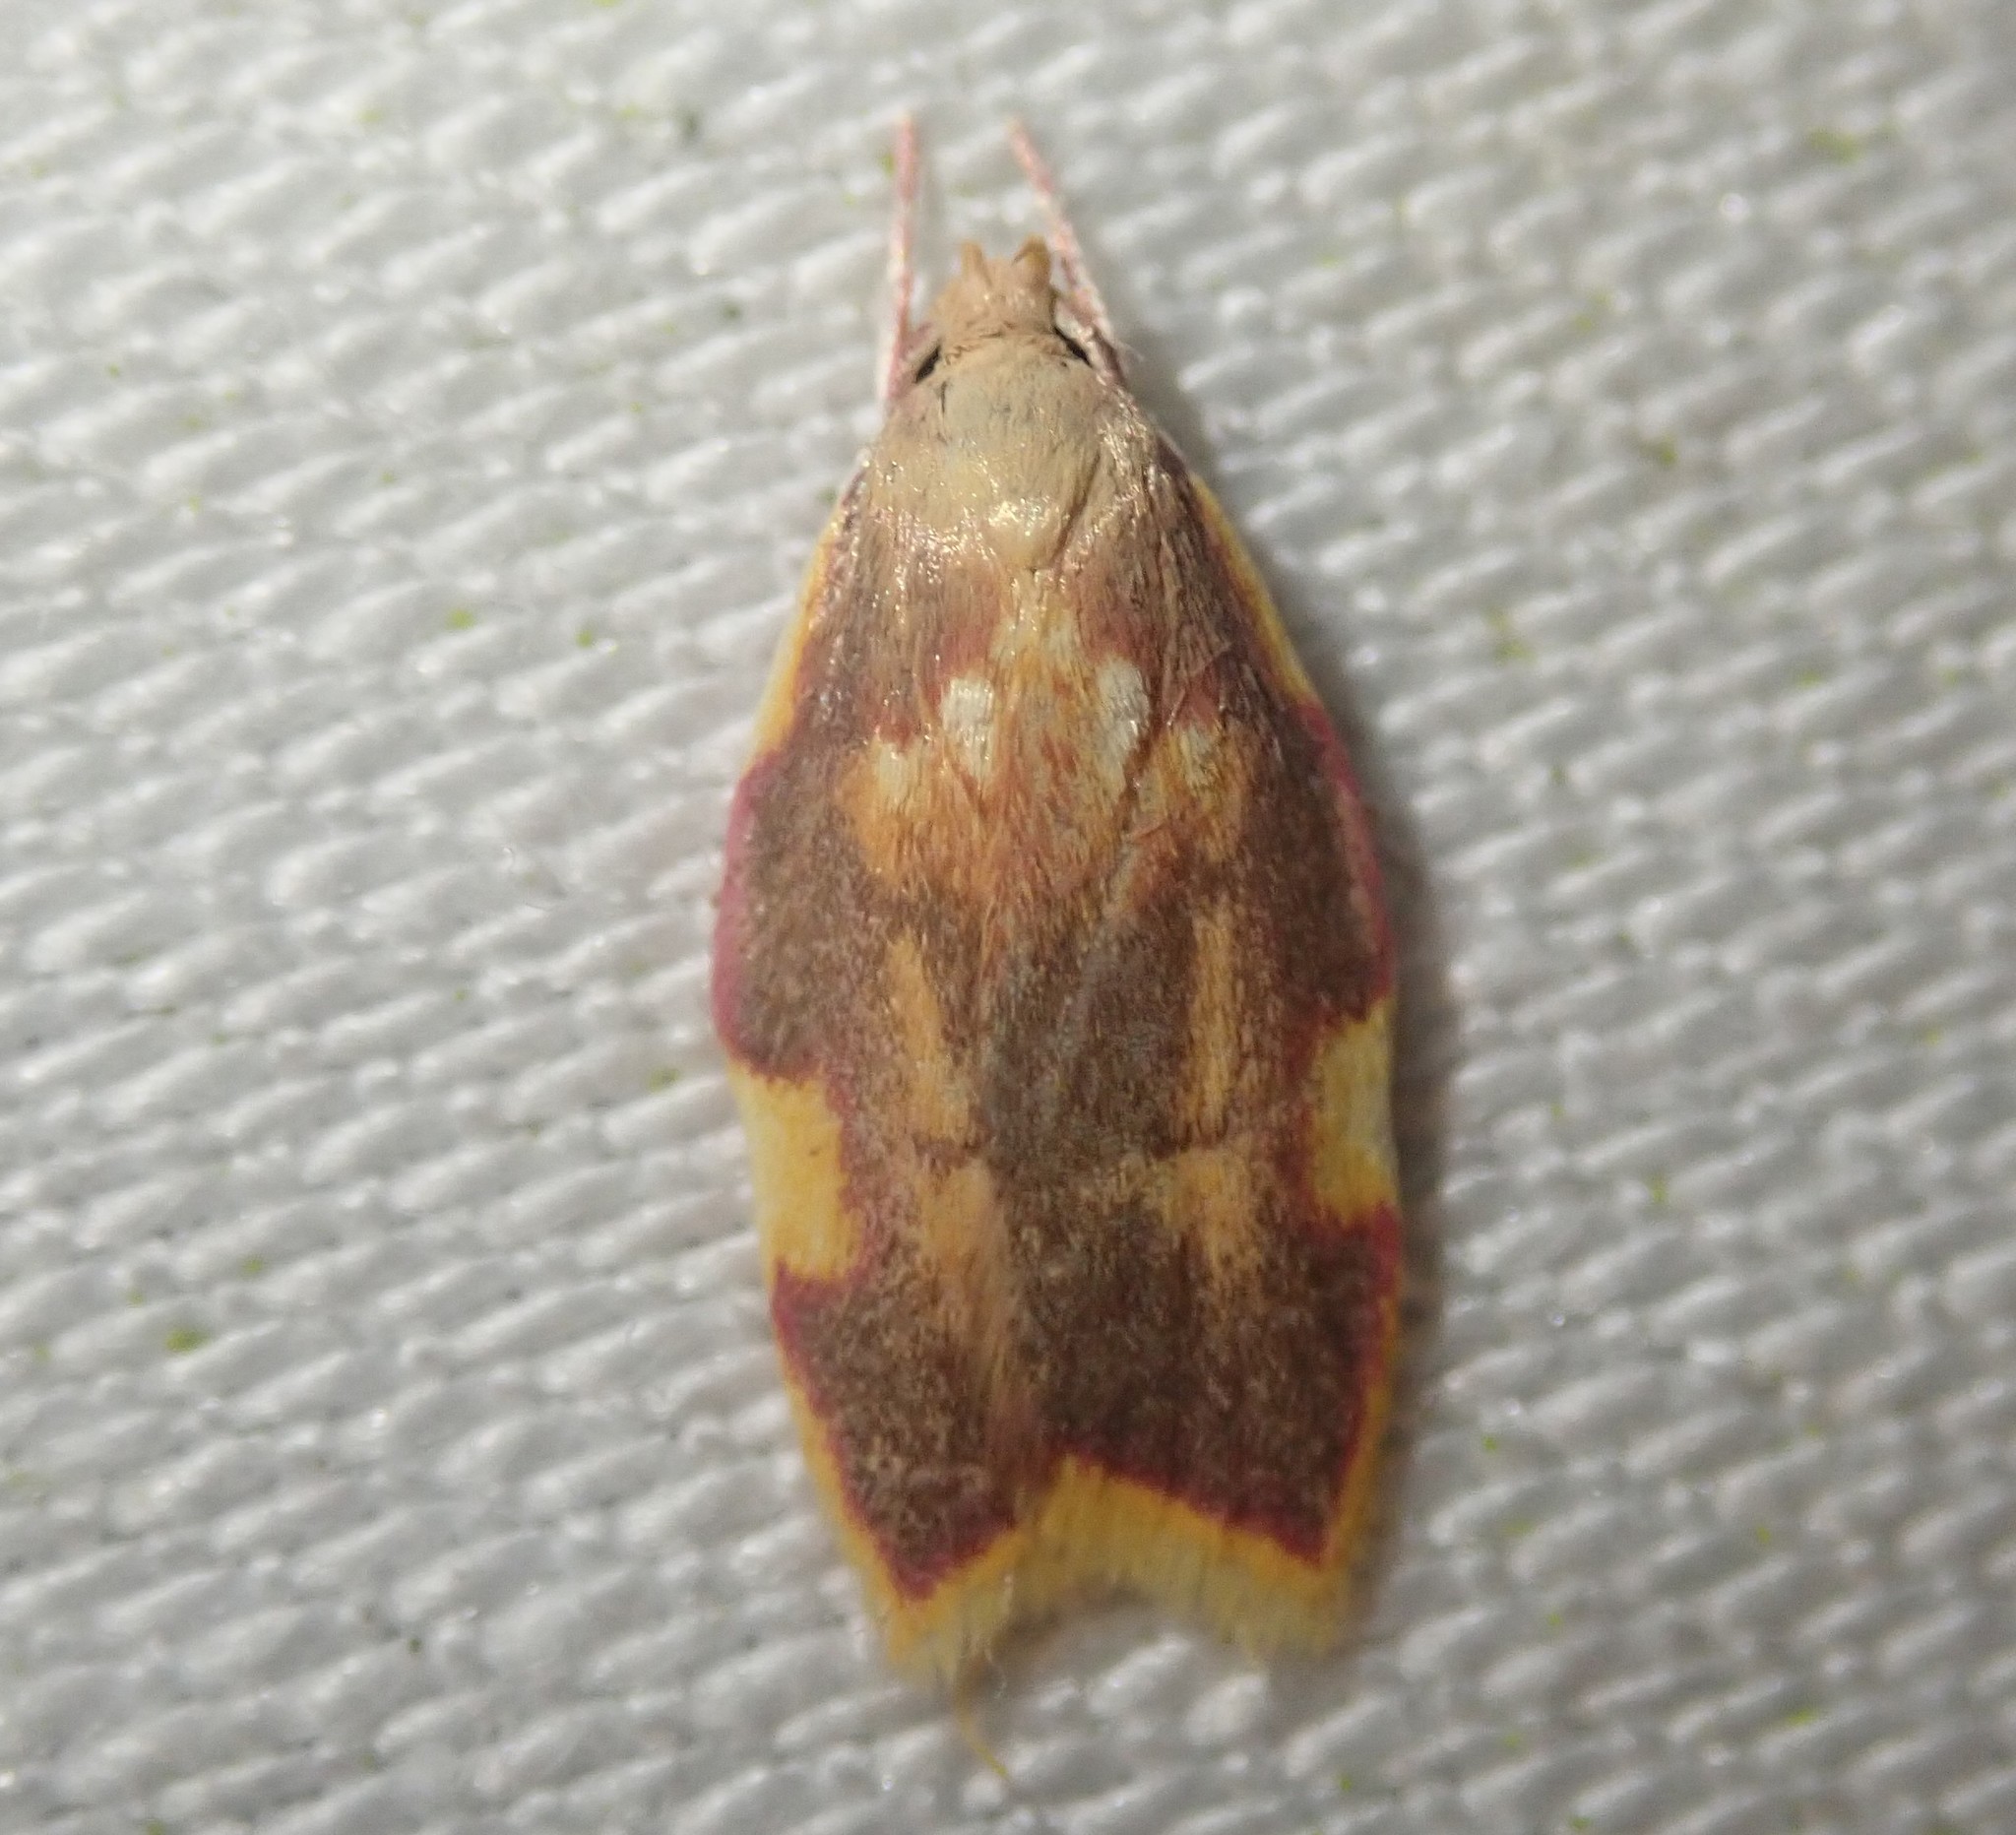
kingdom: Animalia
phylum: Arthropoda
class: Insecta
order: Lepidoptera
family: Peleopodidae
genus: Carcina
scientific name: Carcina quercana
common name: Moth
